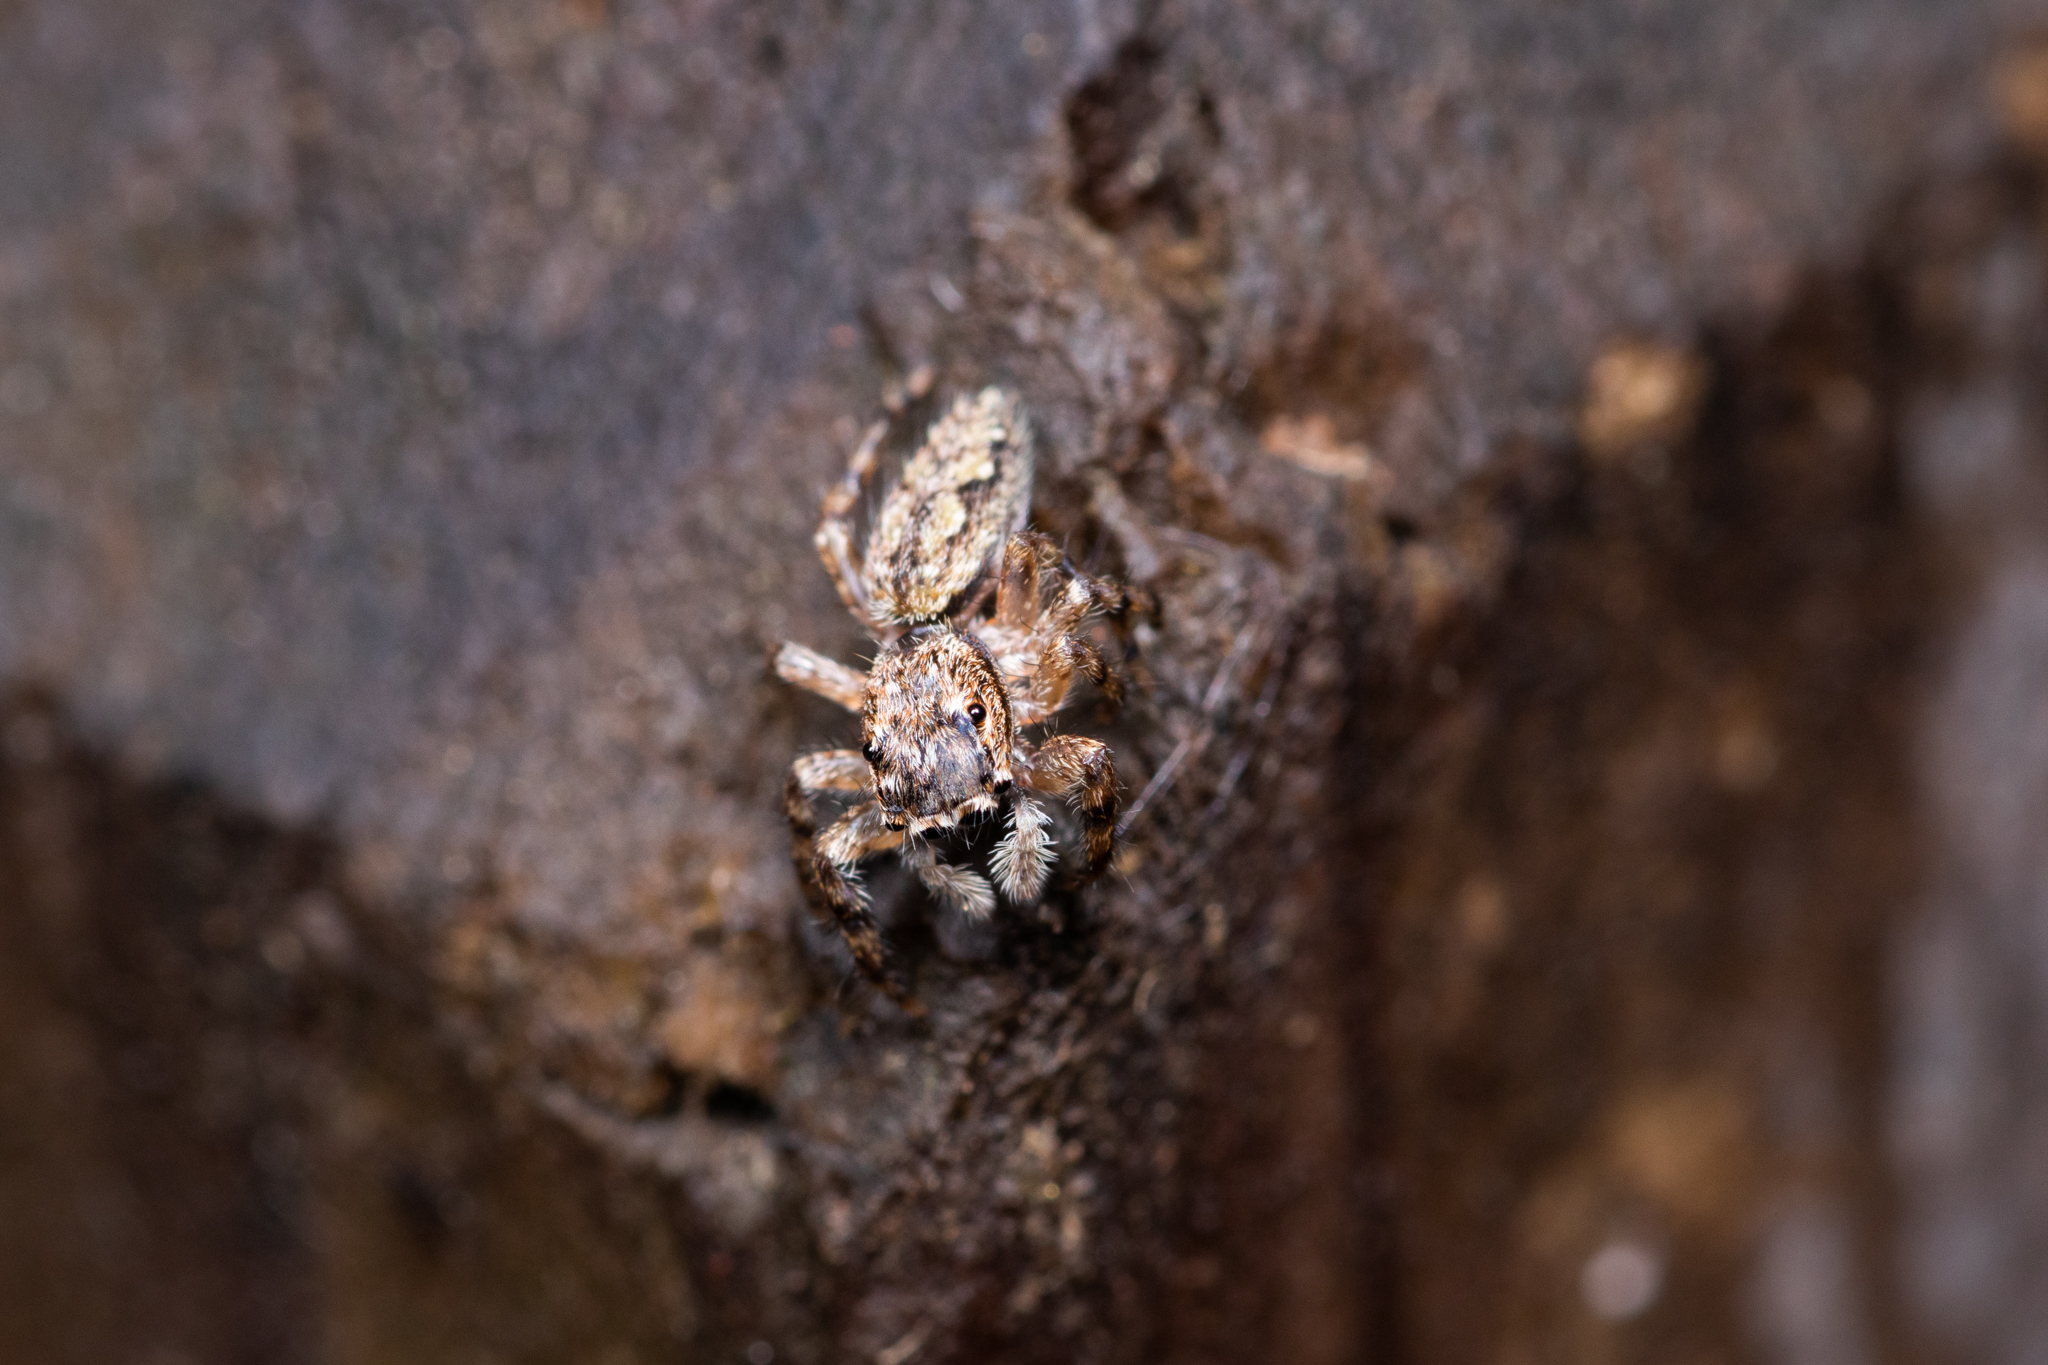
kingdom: Animalia
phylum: Arthropoda
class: Arachnida
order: Araneae
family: Salticidae
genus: Platycryptus
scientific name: Platycryptus undatus
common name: Tan jumping spider
